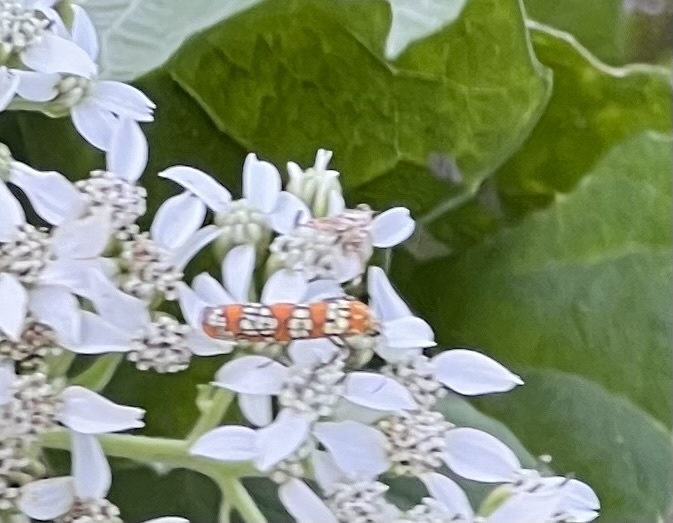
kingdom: Animalia
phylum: Arthropoda
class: Insecta
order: Lepidoptera
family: Attevidae
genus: Atteva
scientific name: Atteva punctella
